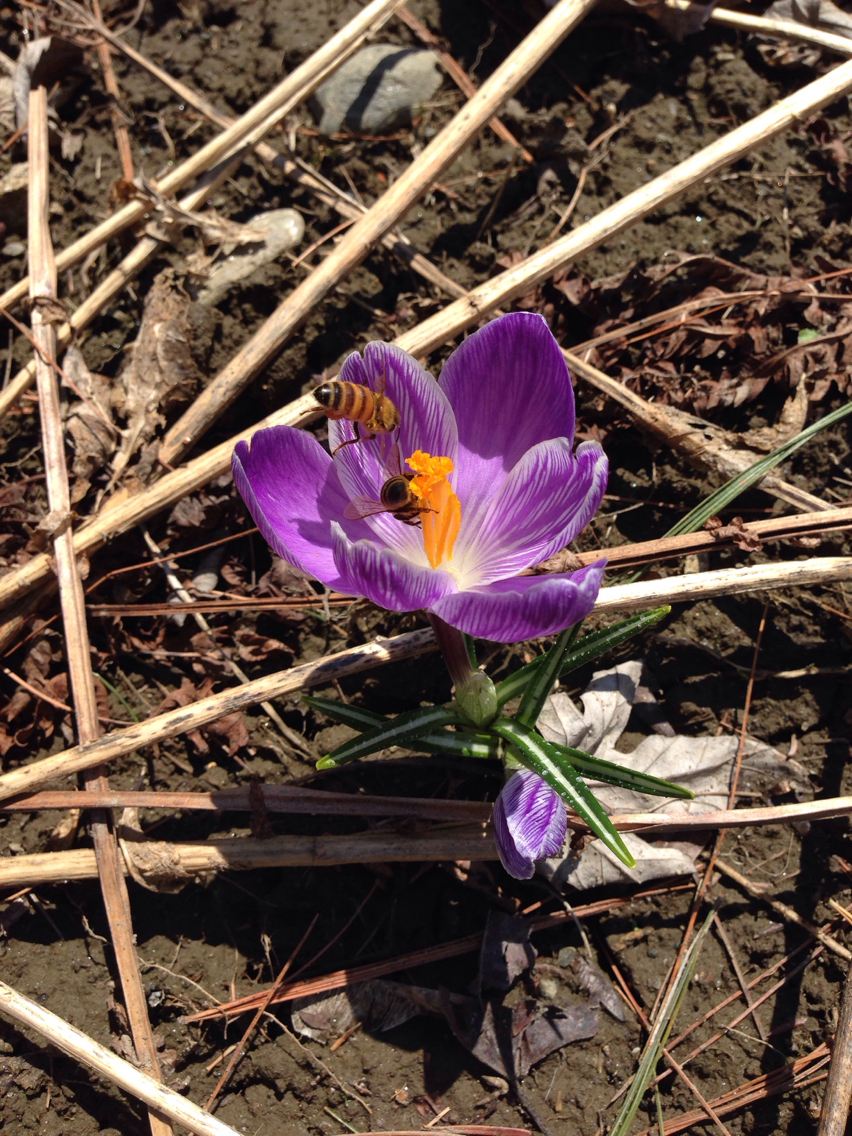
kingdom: Animalia
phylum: Arthropoda
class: Insecta
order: Hymenoptera
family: Apidae
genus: Apis
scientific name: Apis mellifera
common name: Honey bee
